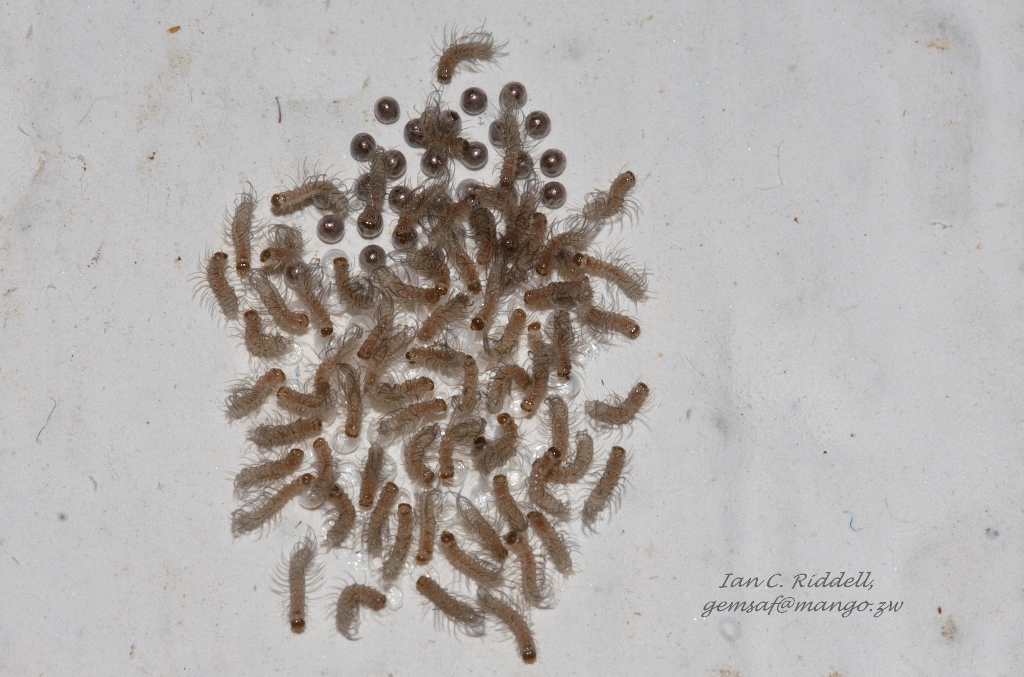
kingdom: Animalia
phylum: Arthropoda
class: Insecta
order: Lepidoptera
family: Erebidae
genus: Amata
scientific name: Amata cerbera
